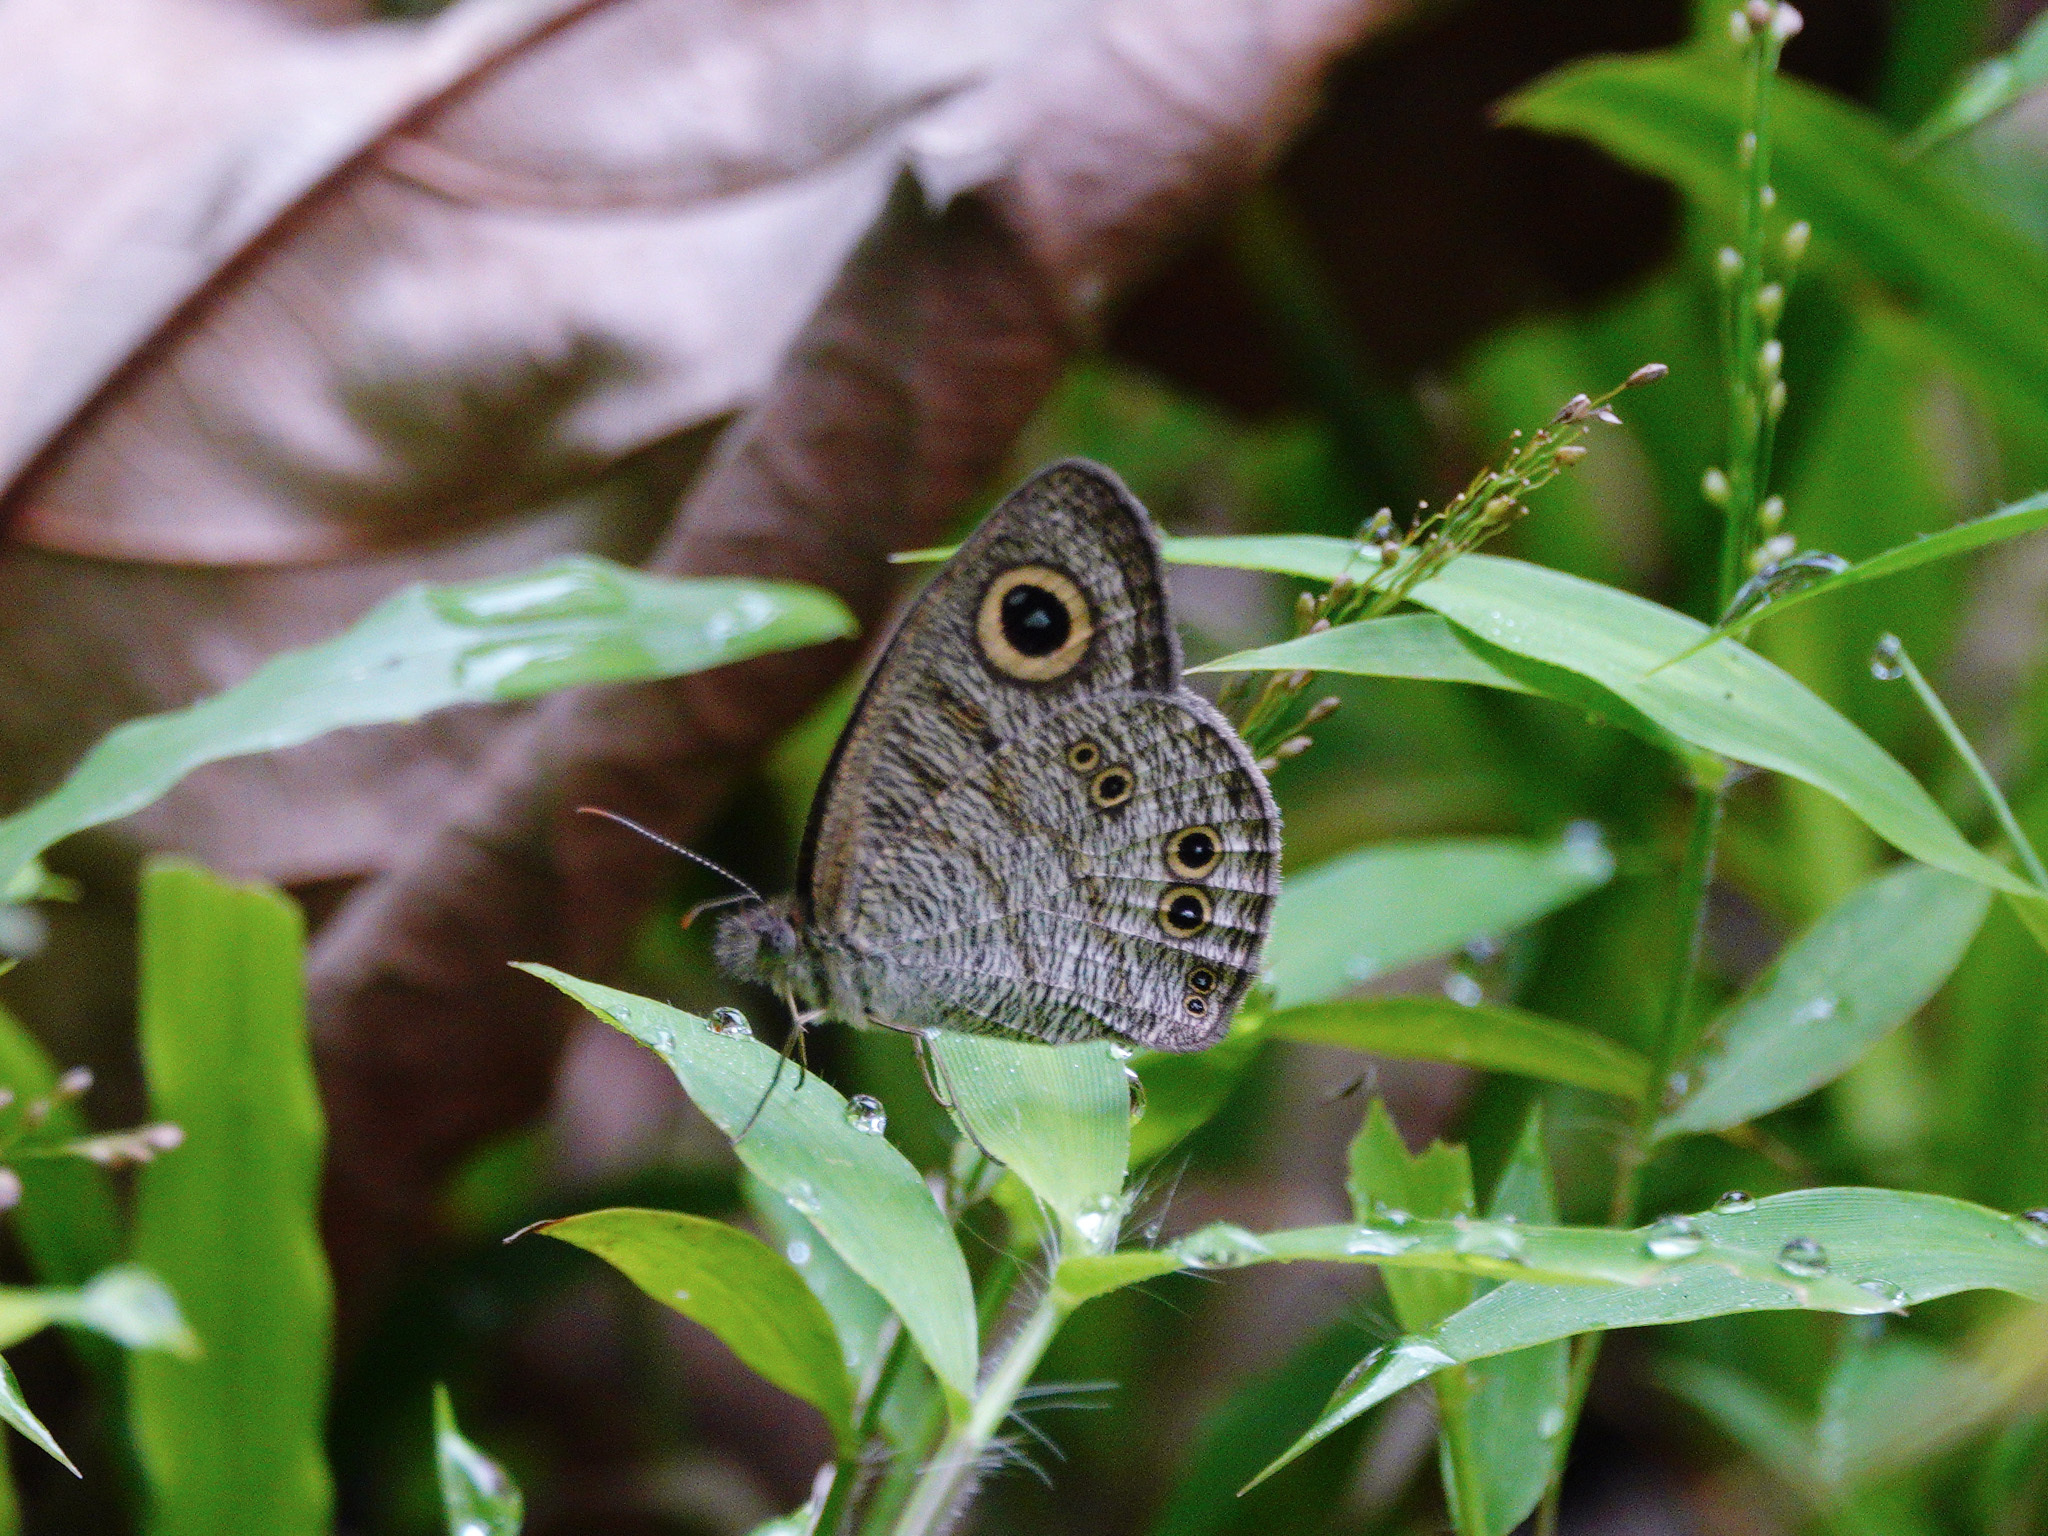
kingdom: Animalia
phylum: Arthropoda
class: Insecta
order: Lepidoptera
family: Nymphalidae
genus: Ypthima
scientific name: Ypthima baldus
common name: Common five-ring
